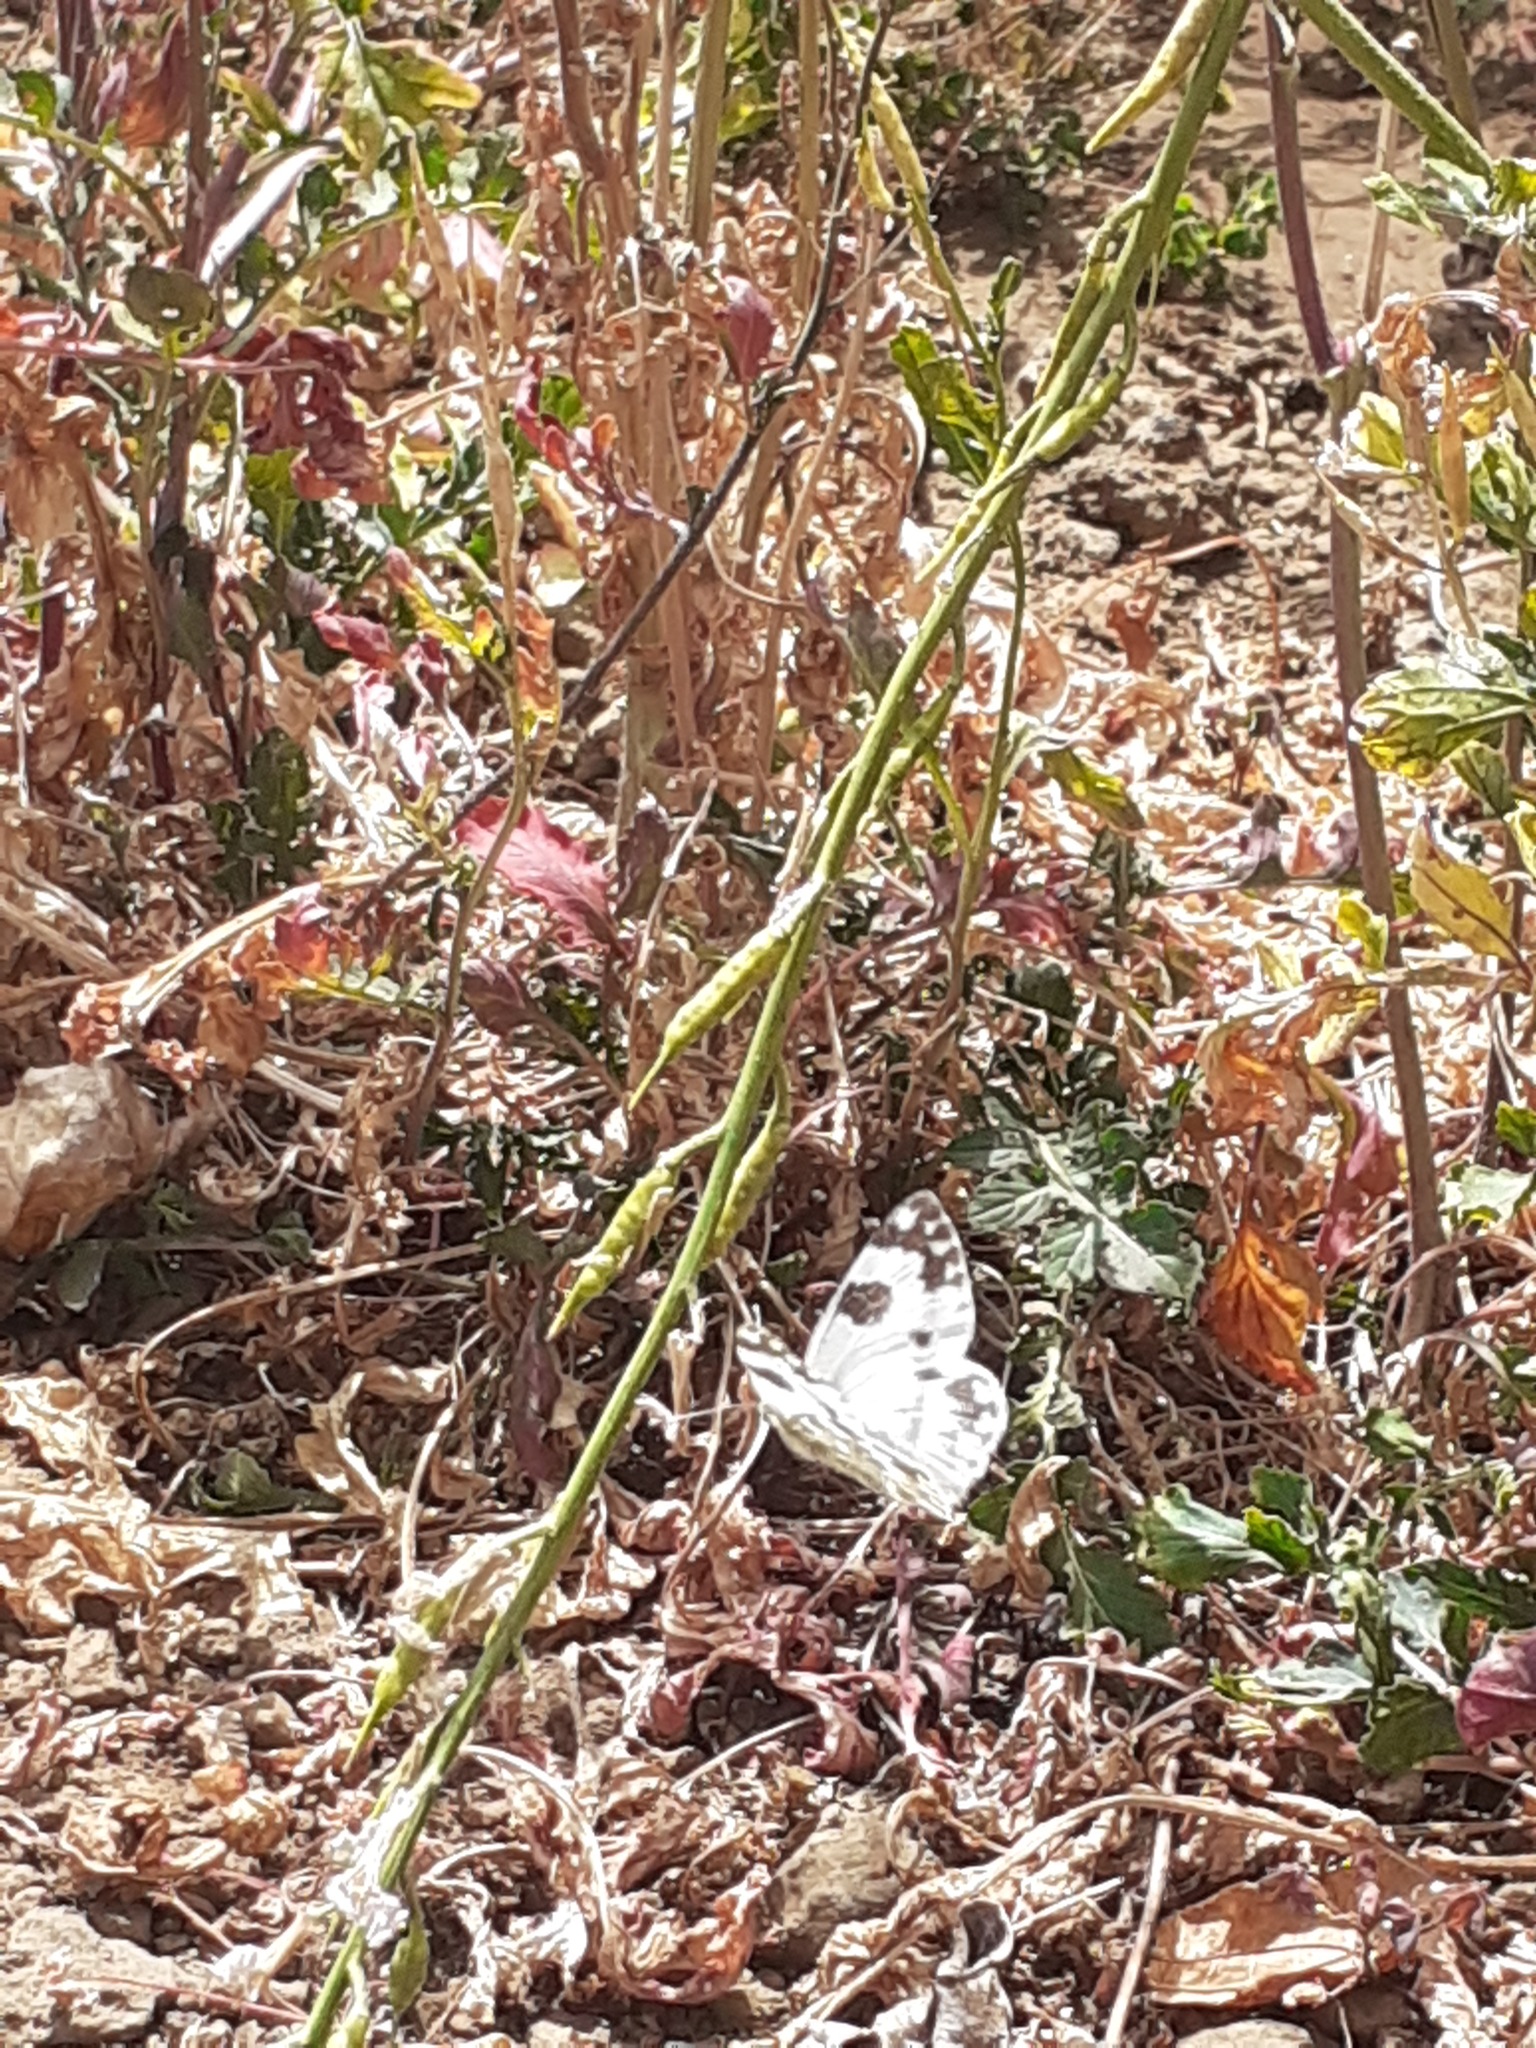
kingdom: Animalia
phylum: Arthropoda
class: Insecta
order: Lepidoptera
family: Pieridae
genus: Pontia
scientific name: Pontia daplidice
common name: Bath white
